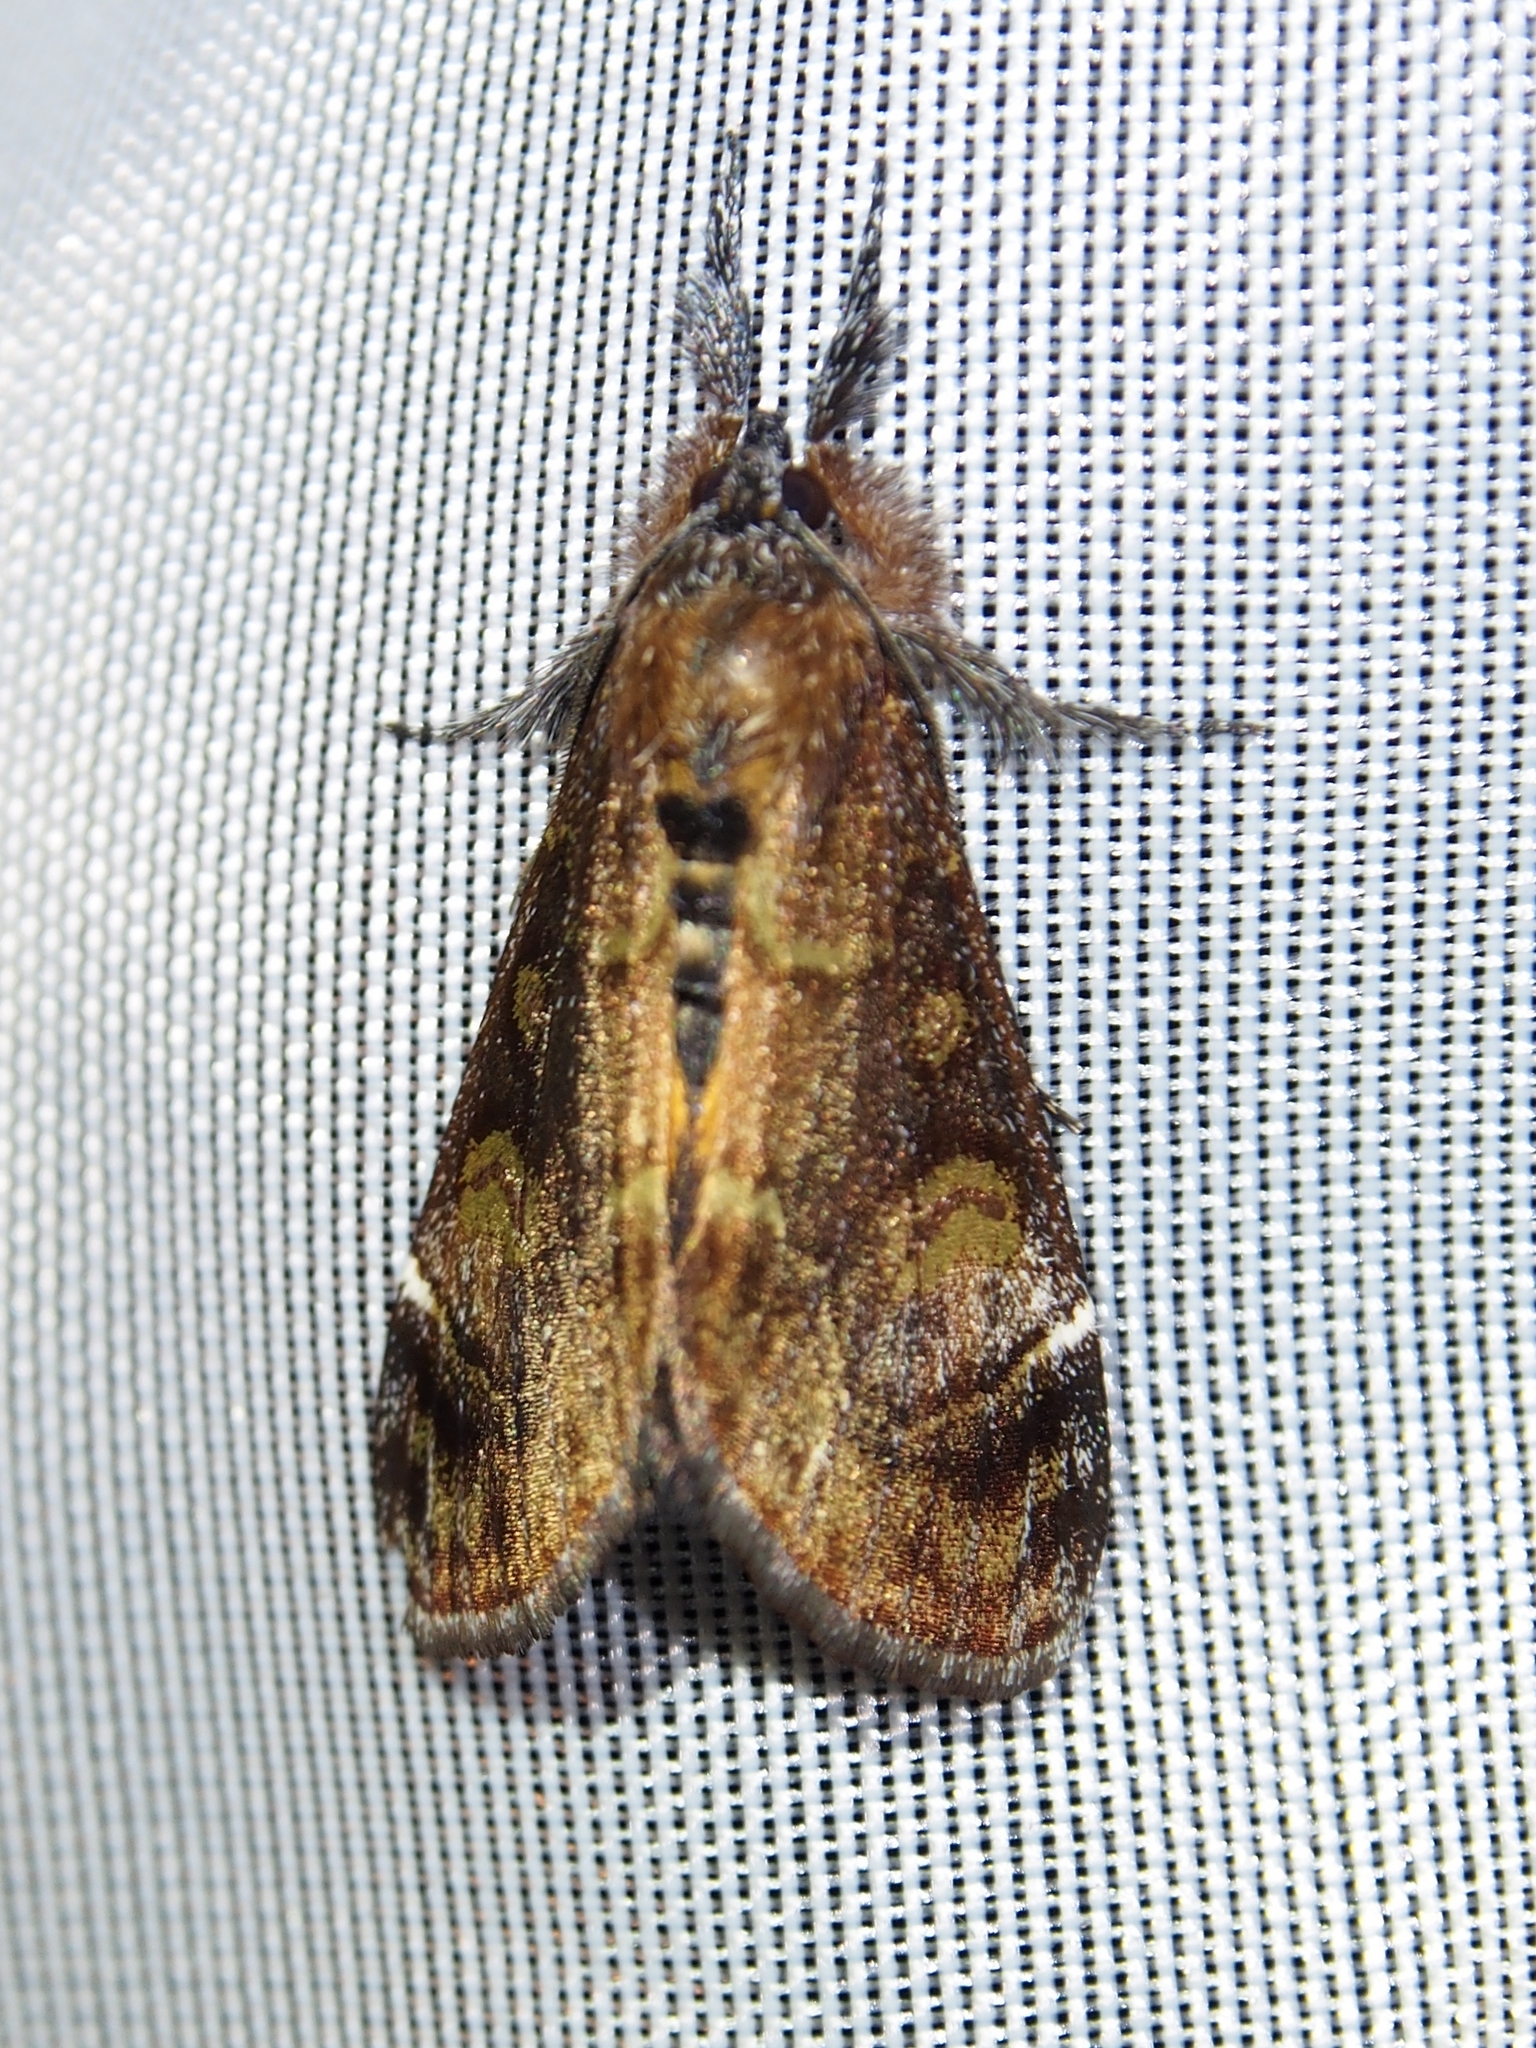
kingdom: Animalia
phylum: Arthropoda
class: Insecta
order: Lepidoptera
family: Noctuidae
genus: Gerra
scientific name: Gerra aelia
